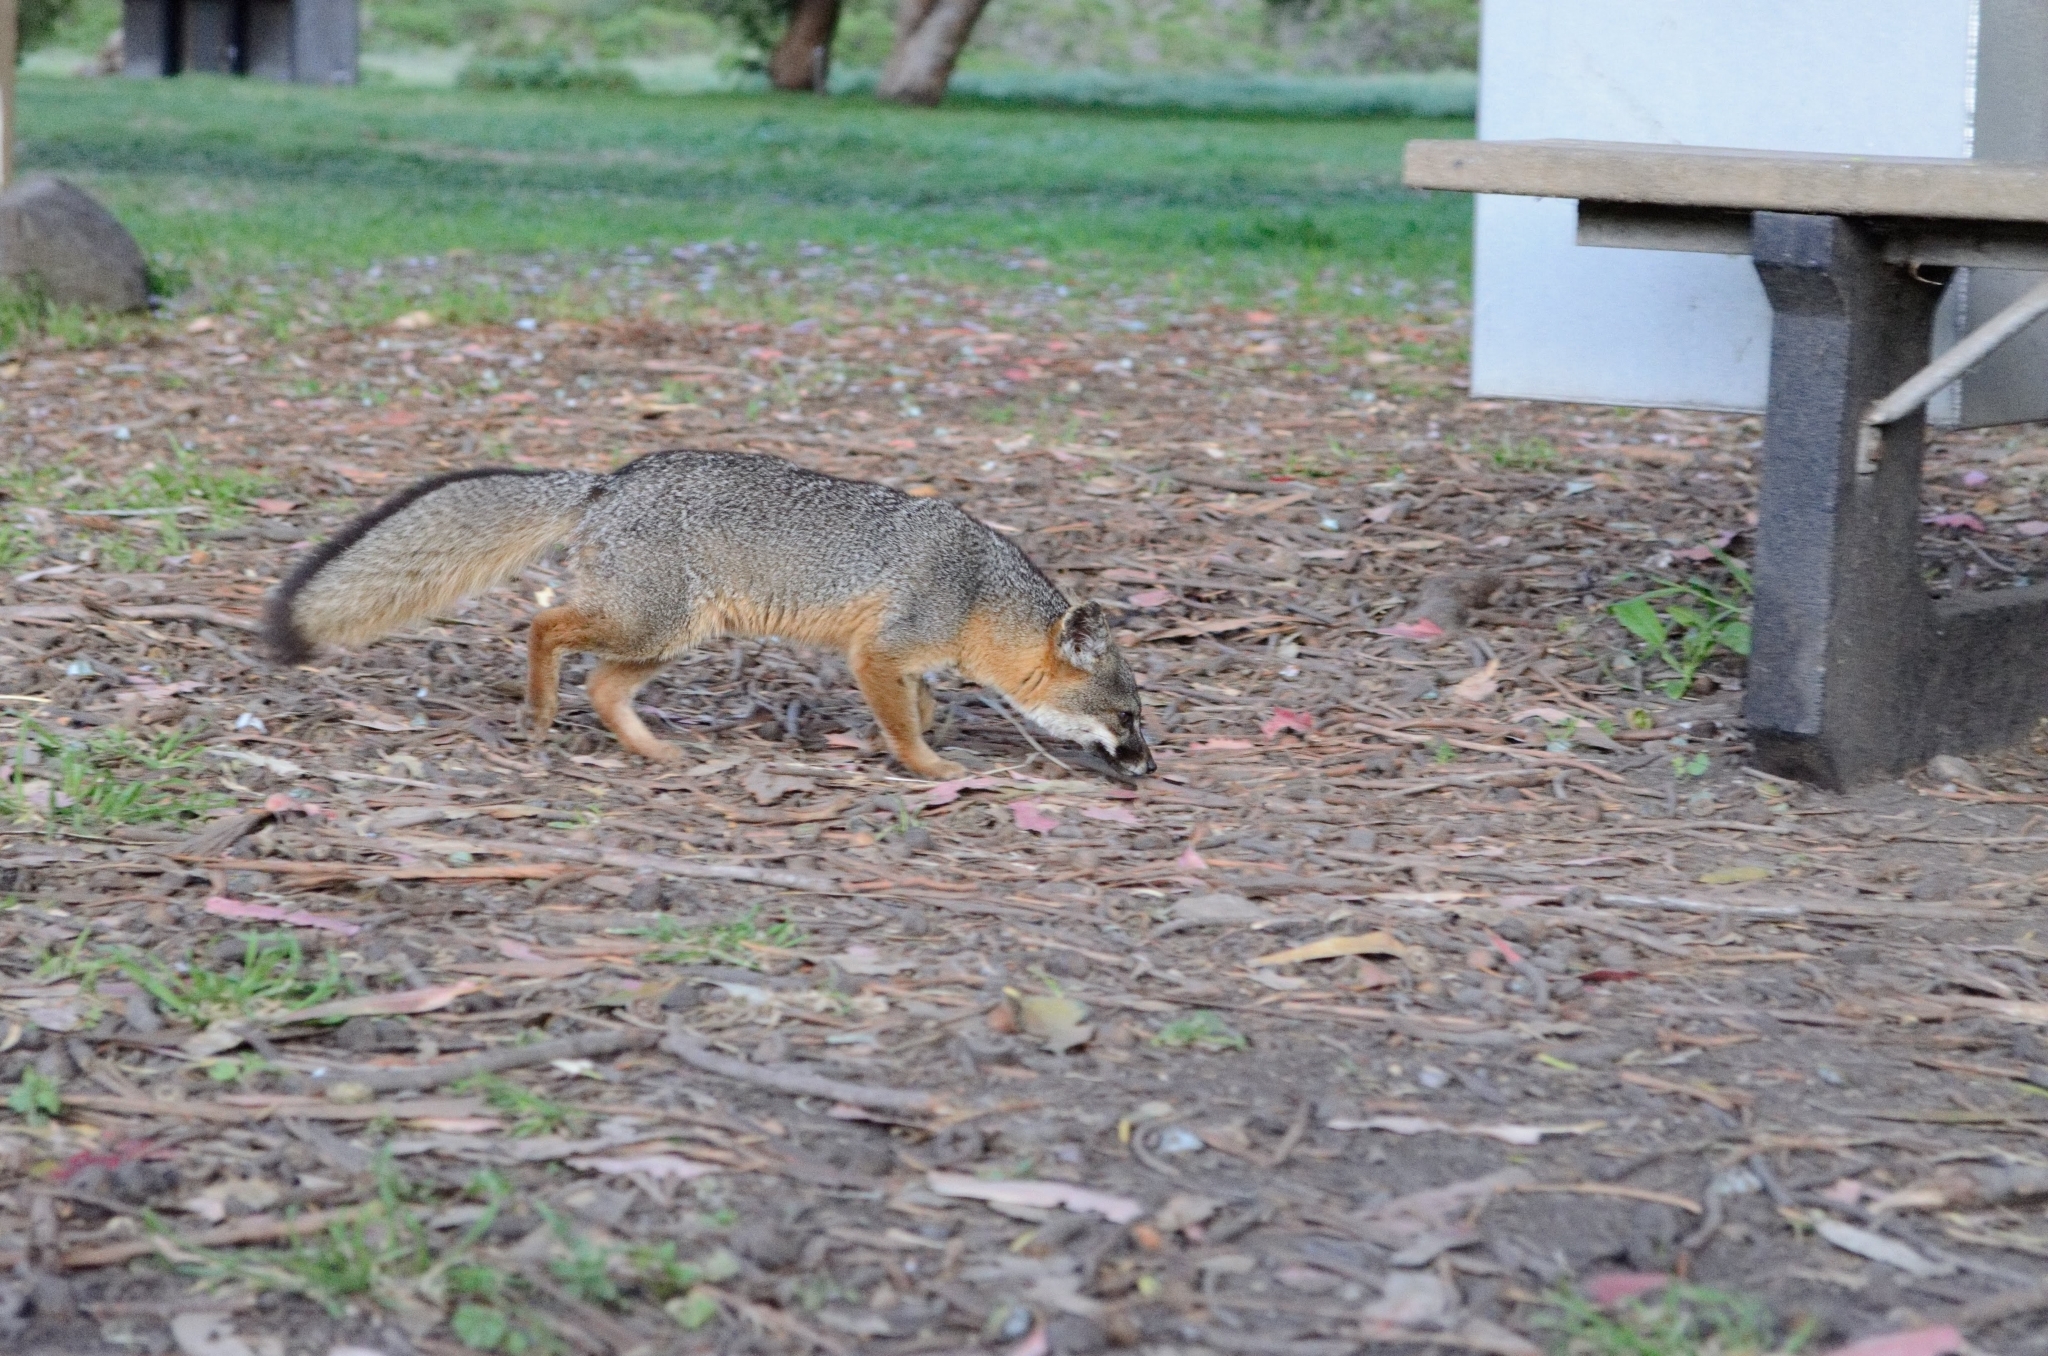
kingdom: Animalia
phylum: Chordata
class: Mammalia
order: Carnivora
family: Canidae
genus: Urocyon
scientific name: Urocyon littoralis
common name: Island gray fox
